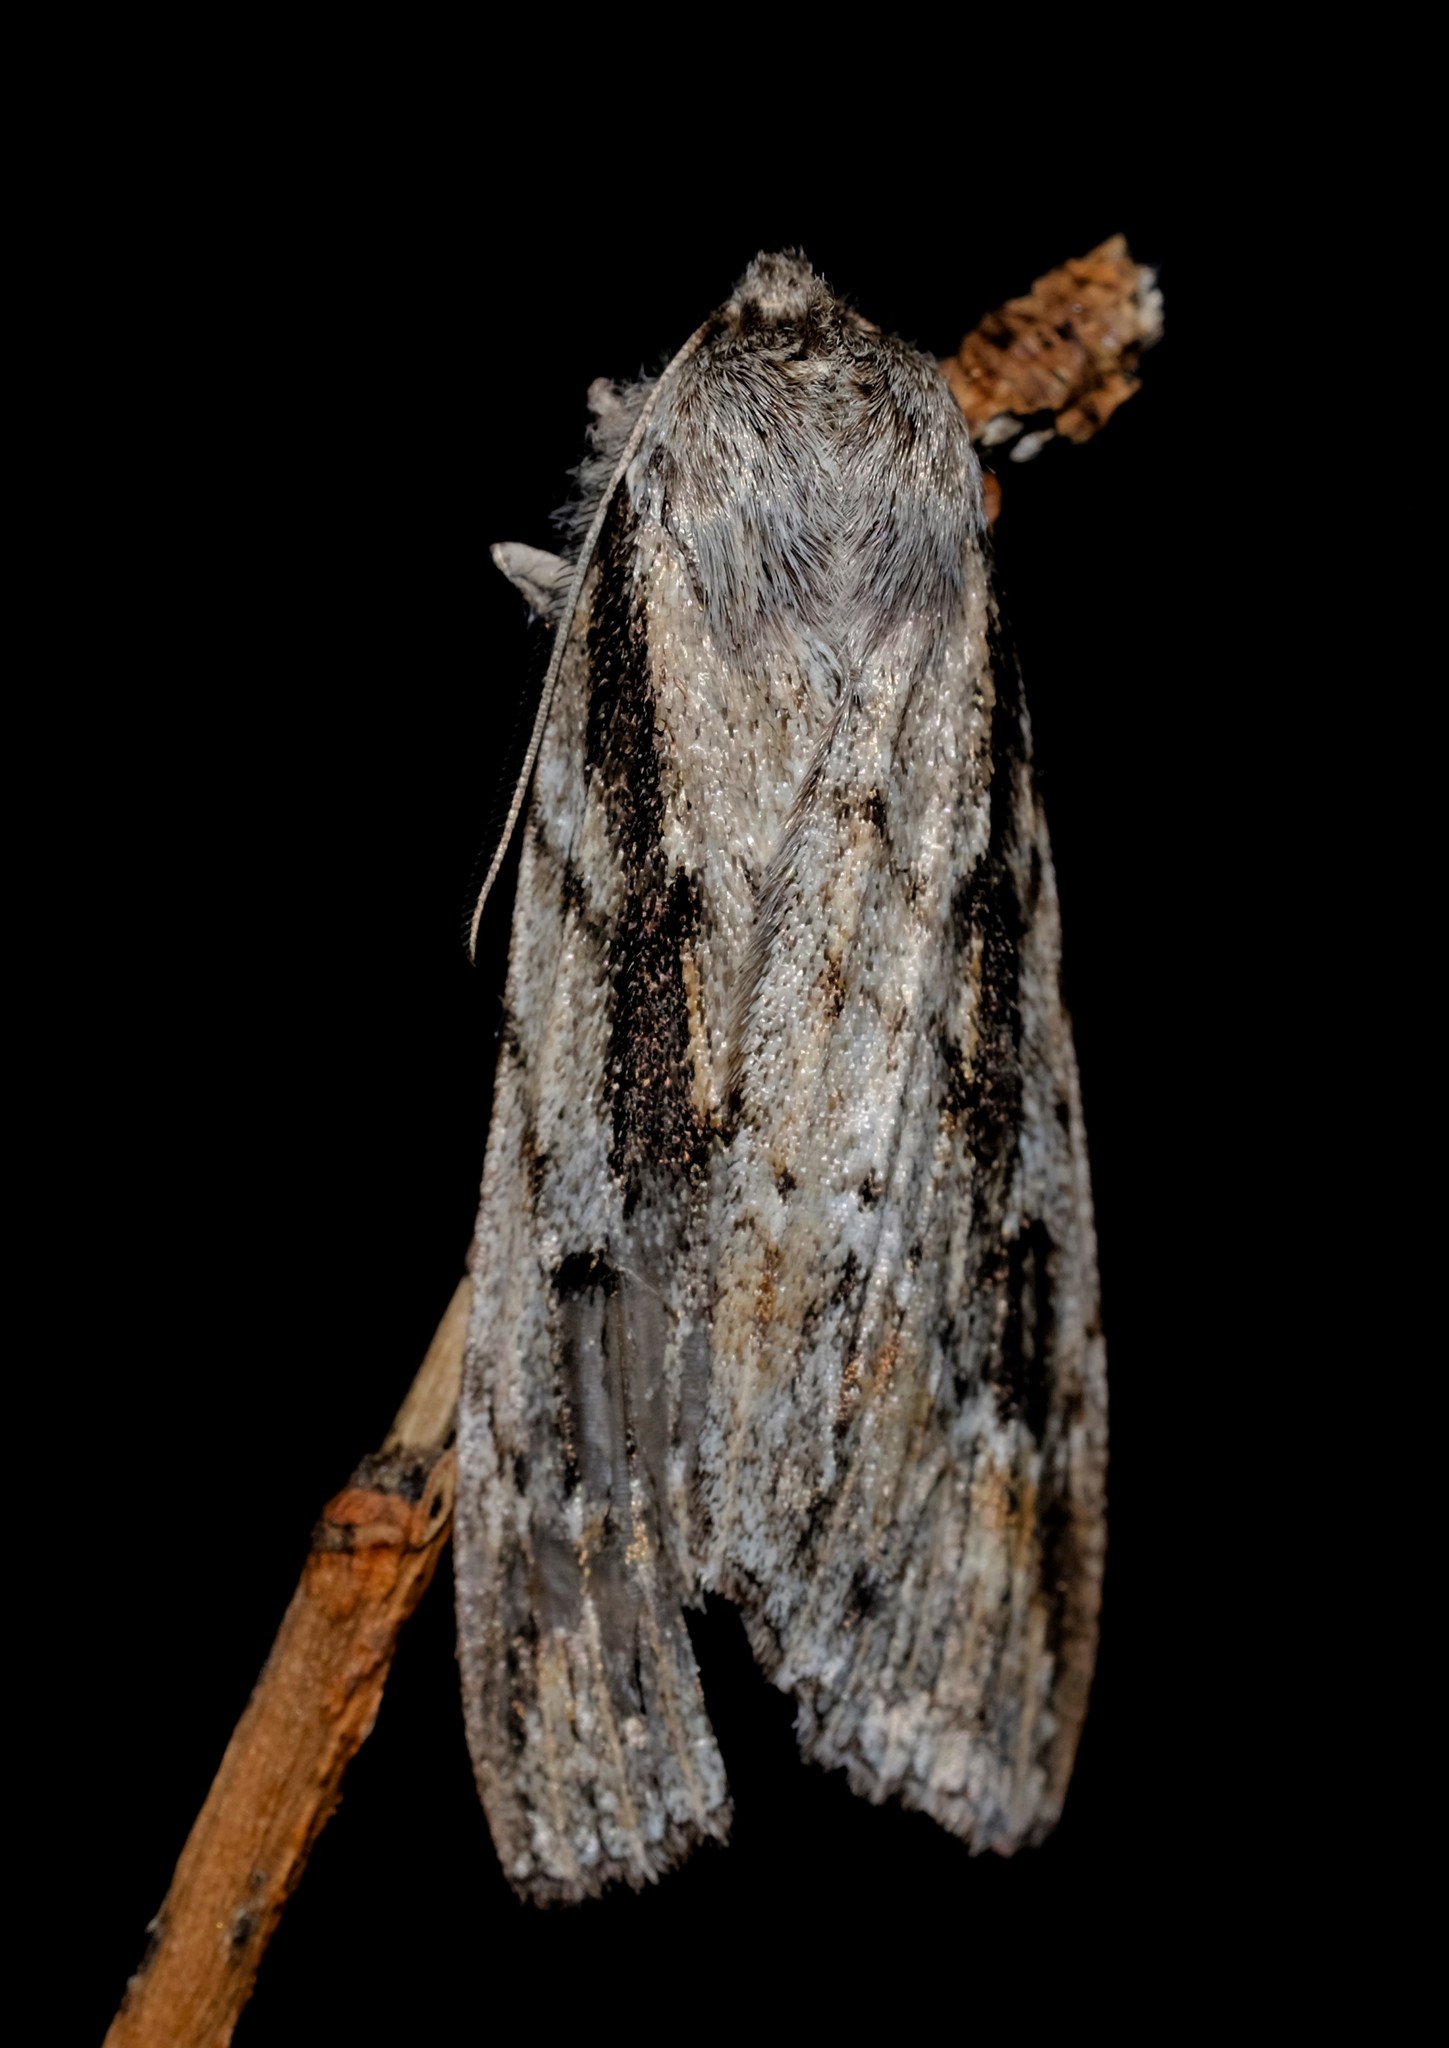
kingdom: Animalia
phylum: Arthropoda
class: Insecta
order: Lepidoptera
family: Geometridae
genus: Chlenias
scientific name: Chlenias banksiaria
